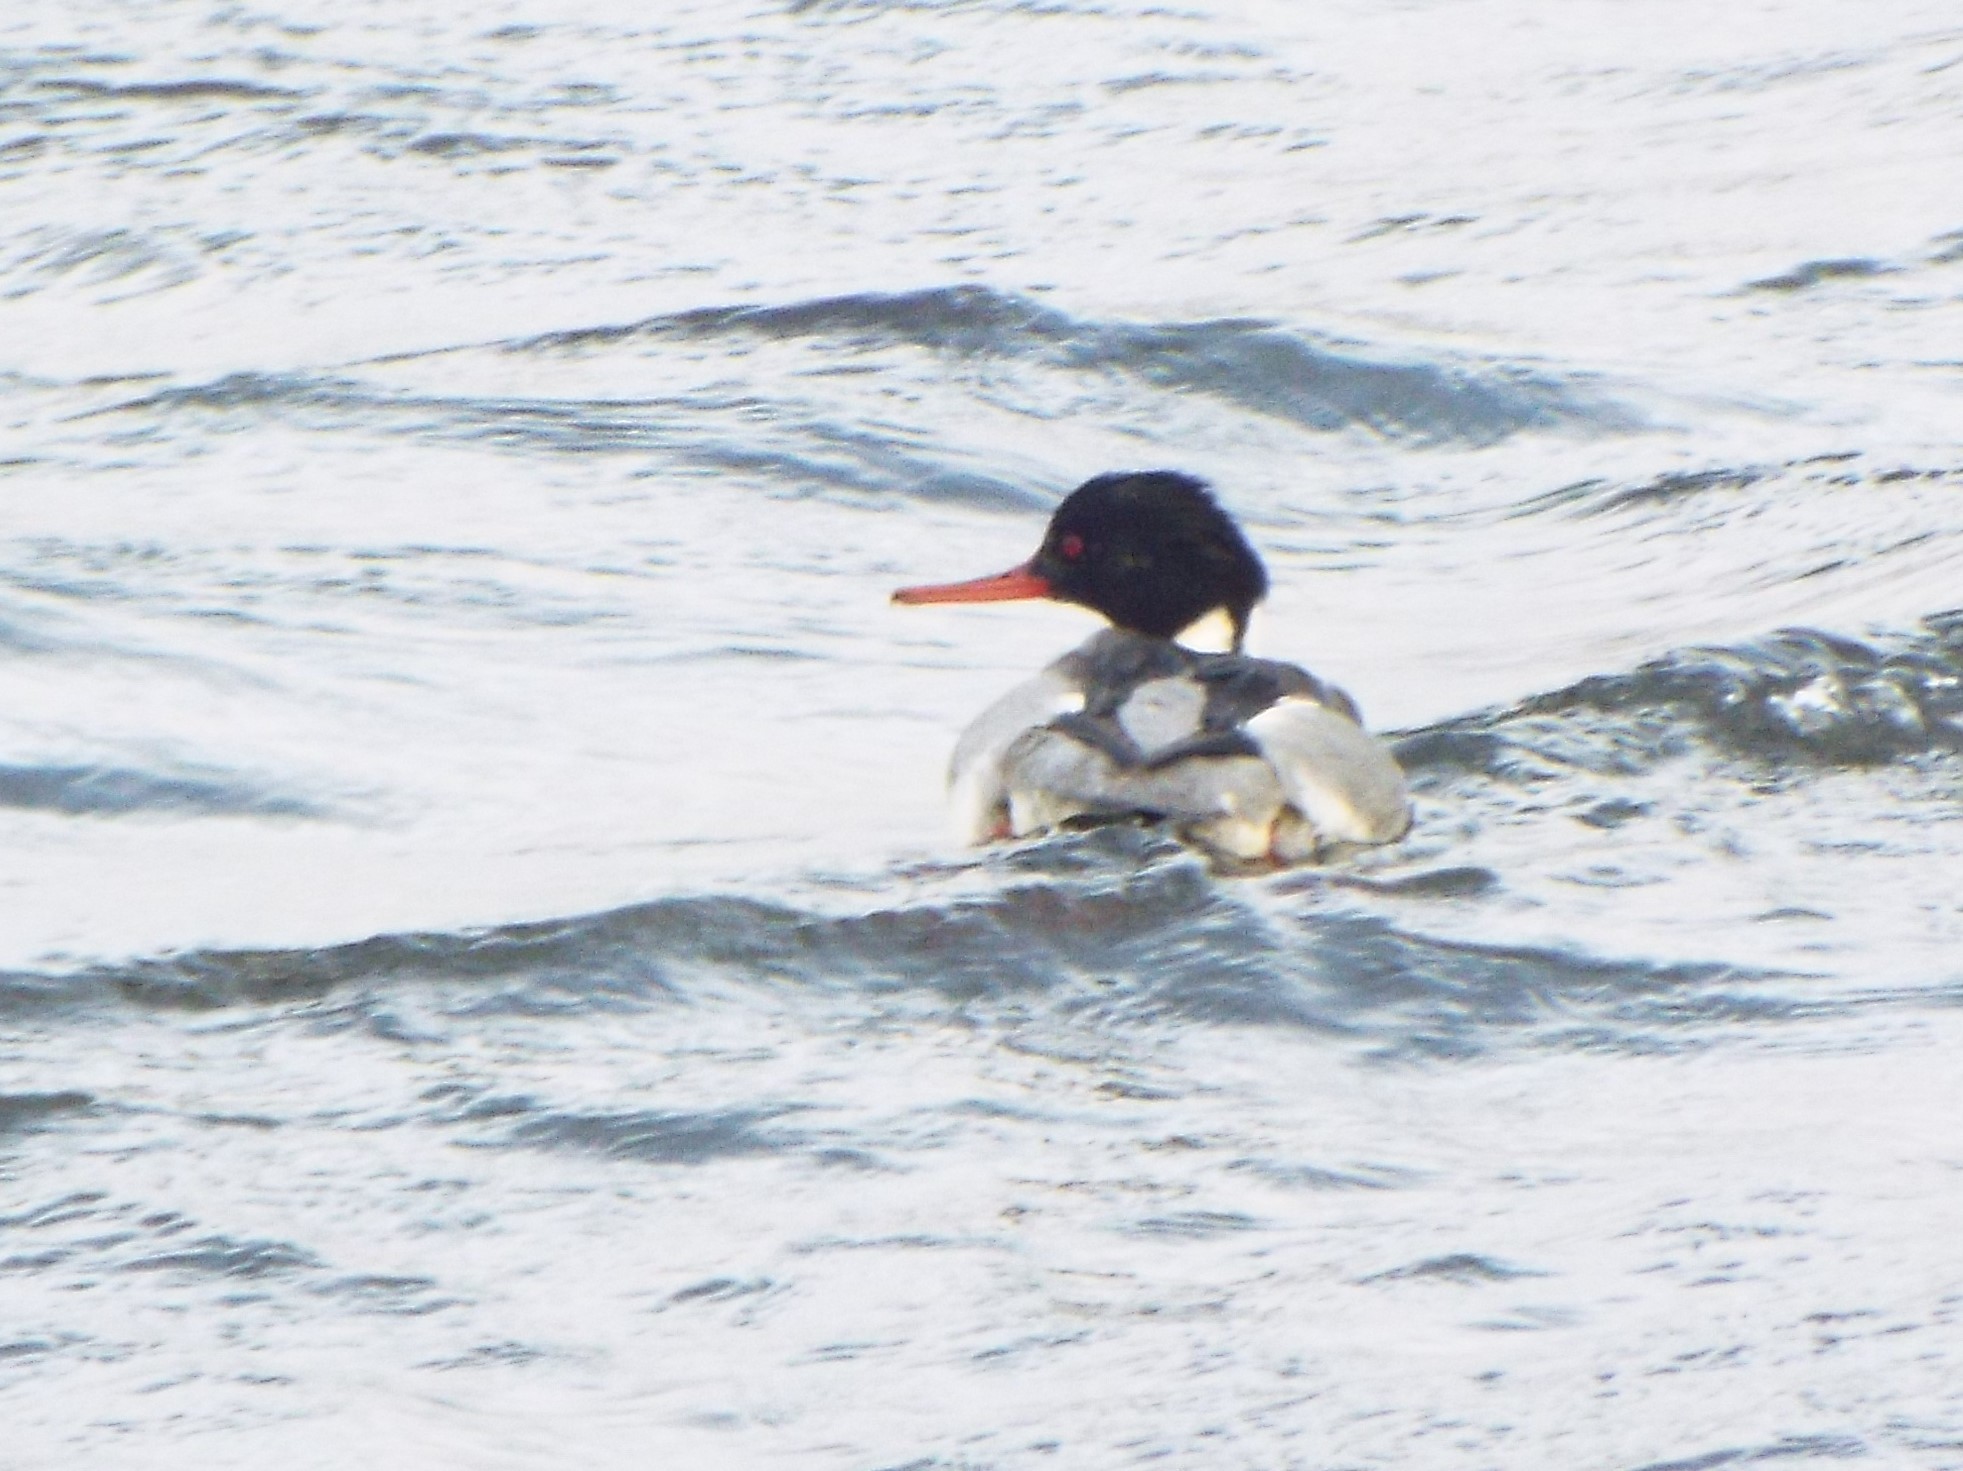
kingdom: Animalia
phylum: Chordata
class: Aves
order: Anseriformes
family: Anatidae
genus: Mergus
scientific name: Mergus serrator
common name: Red-breasted merganser
